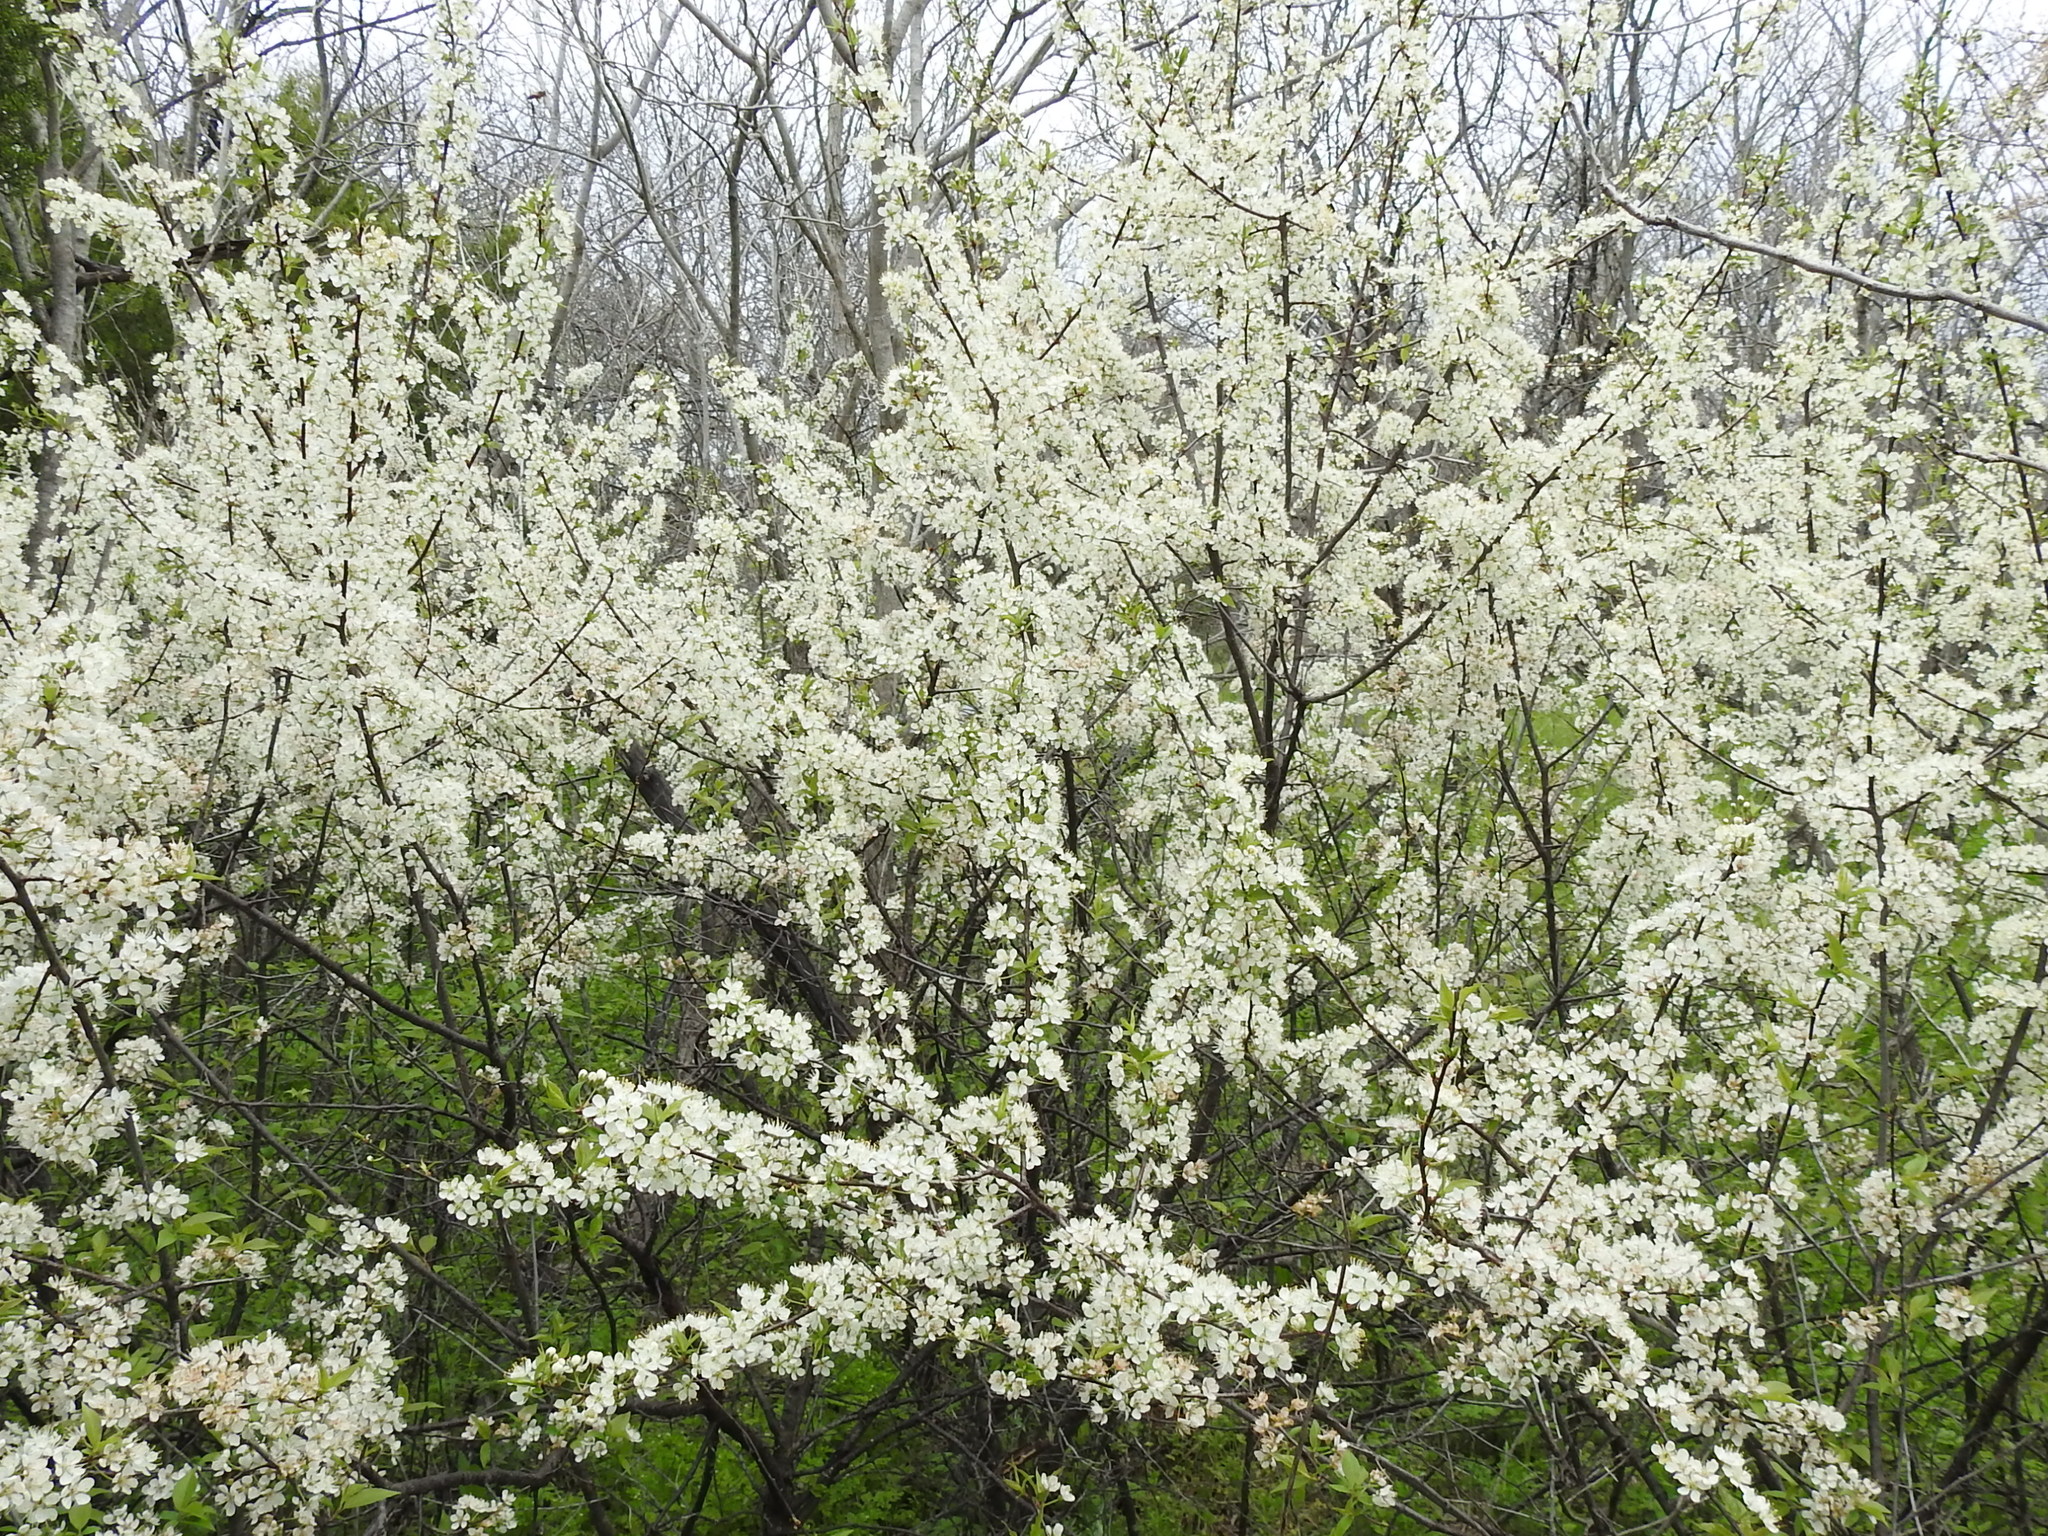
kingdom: Plantae
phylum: Tracheophyta
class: Magnoliopsida
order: Rosales
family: Rosaceae
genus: Prunus
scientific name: Prunus rivularis
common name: Creek plum
